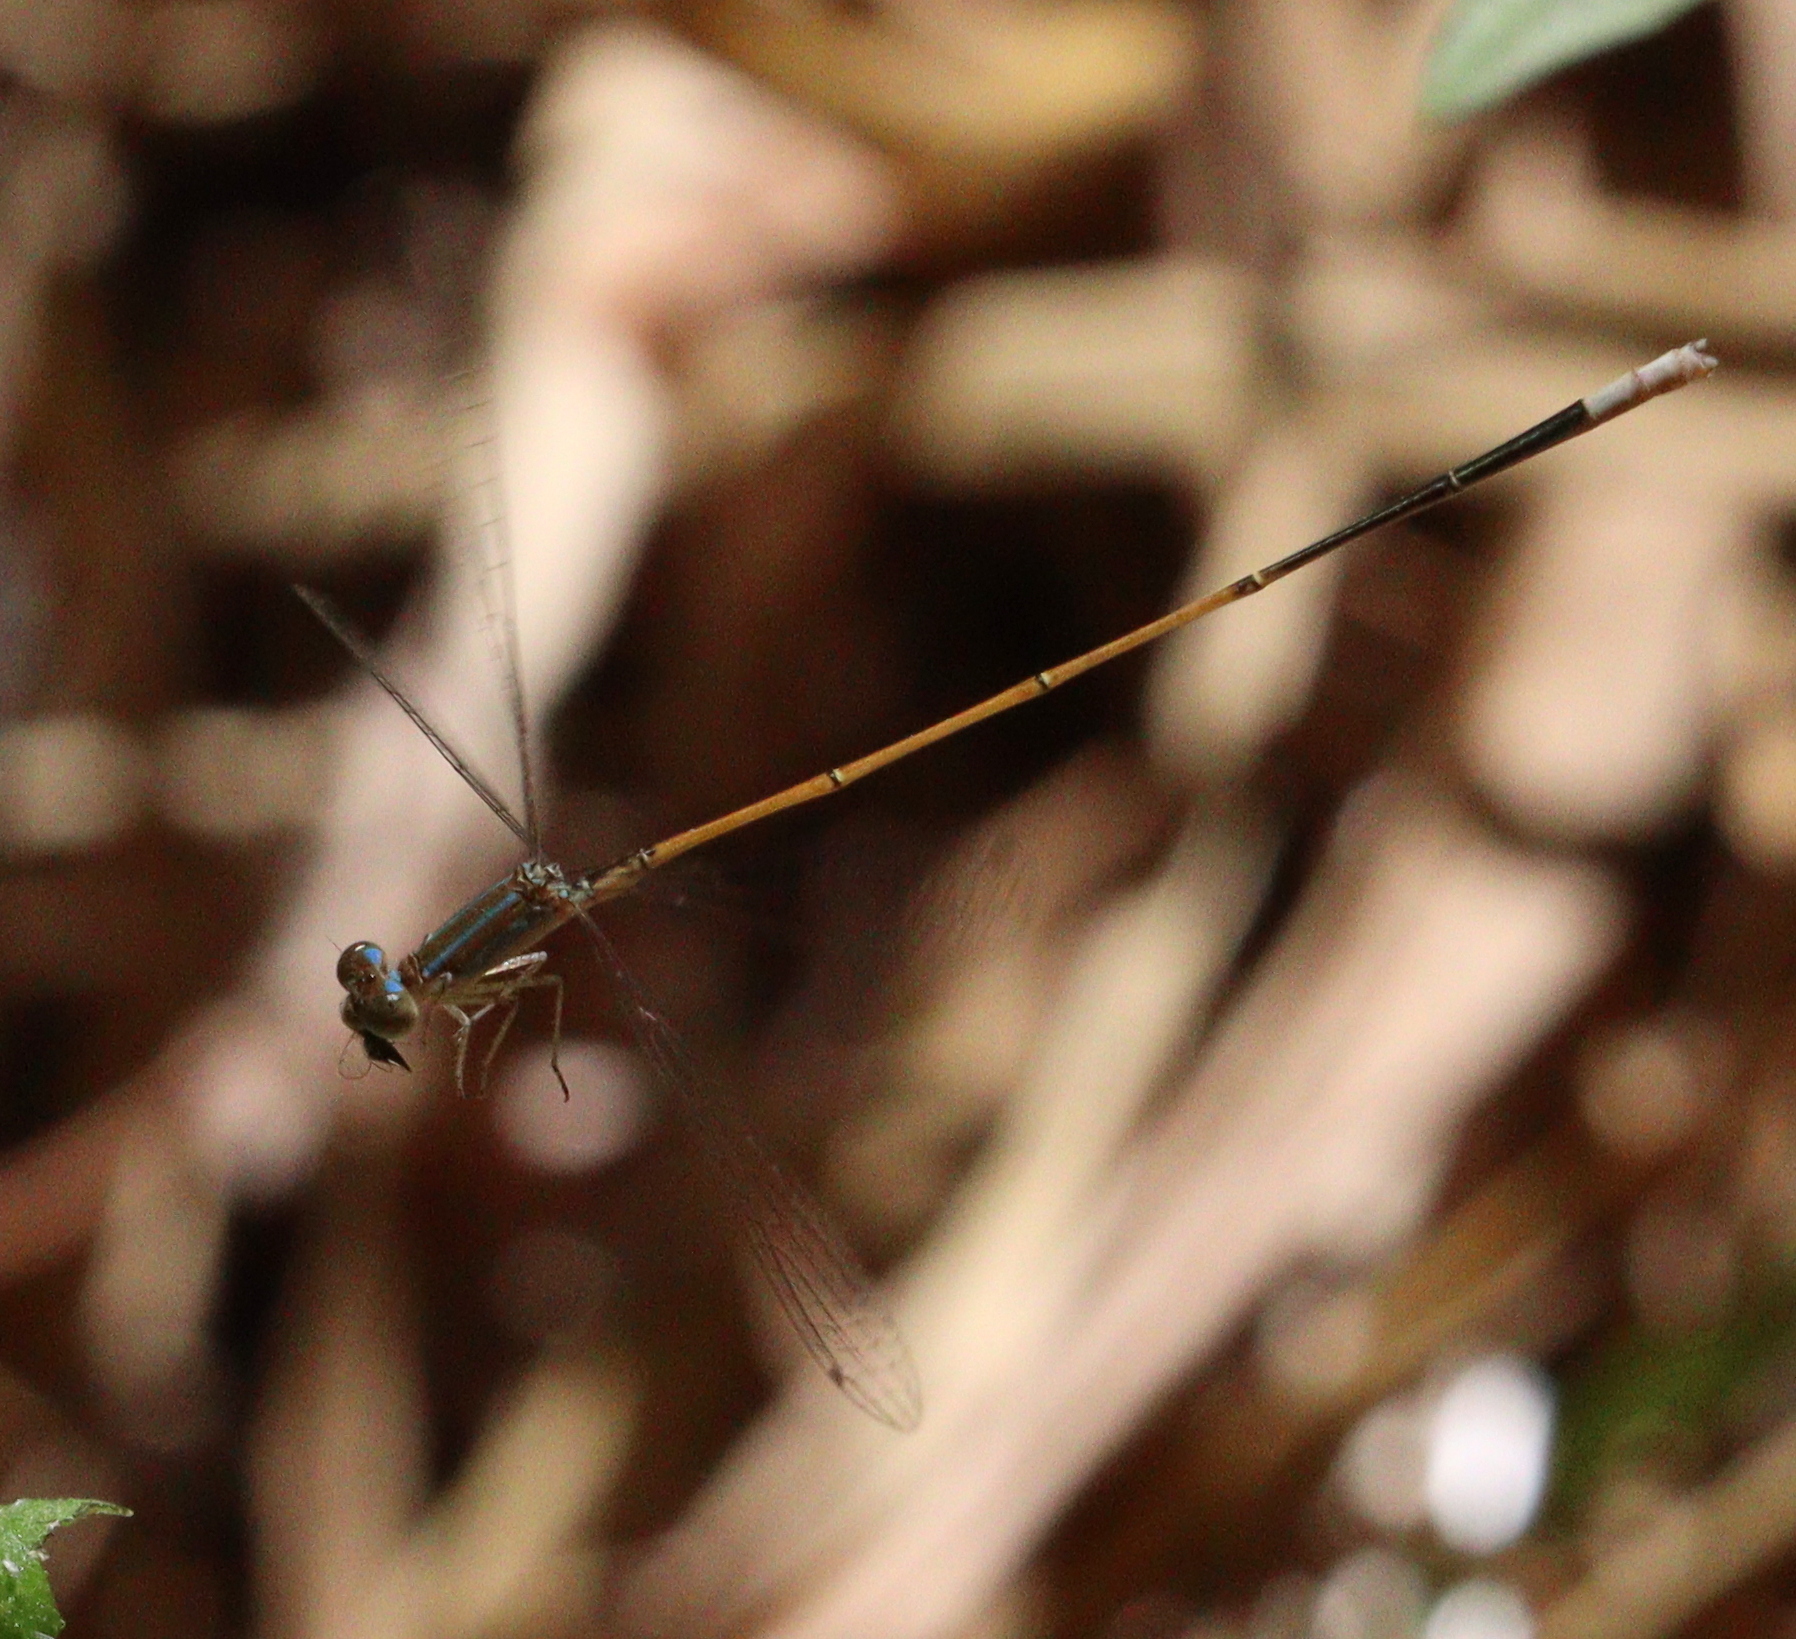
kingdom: Animalia
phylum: Arthropoda
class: Insecta
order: Odonata
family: Coenagrionidae
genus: Aciagrion
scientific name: Aciagrion pallidum
